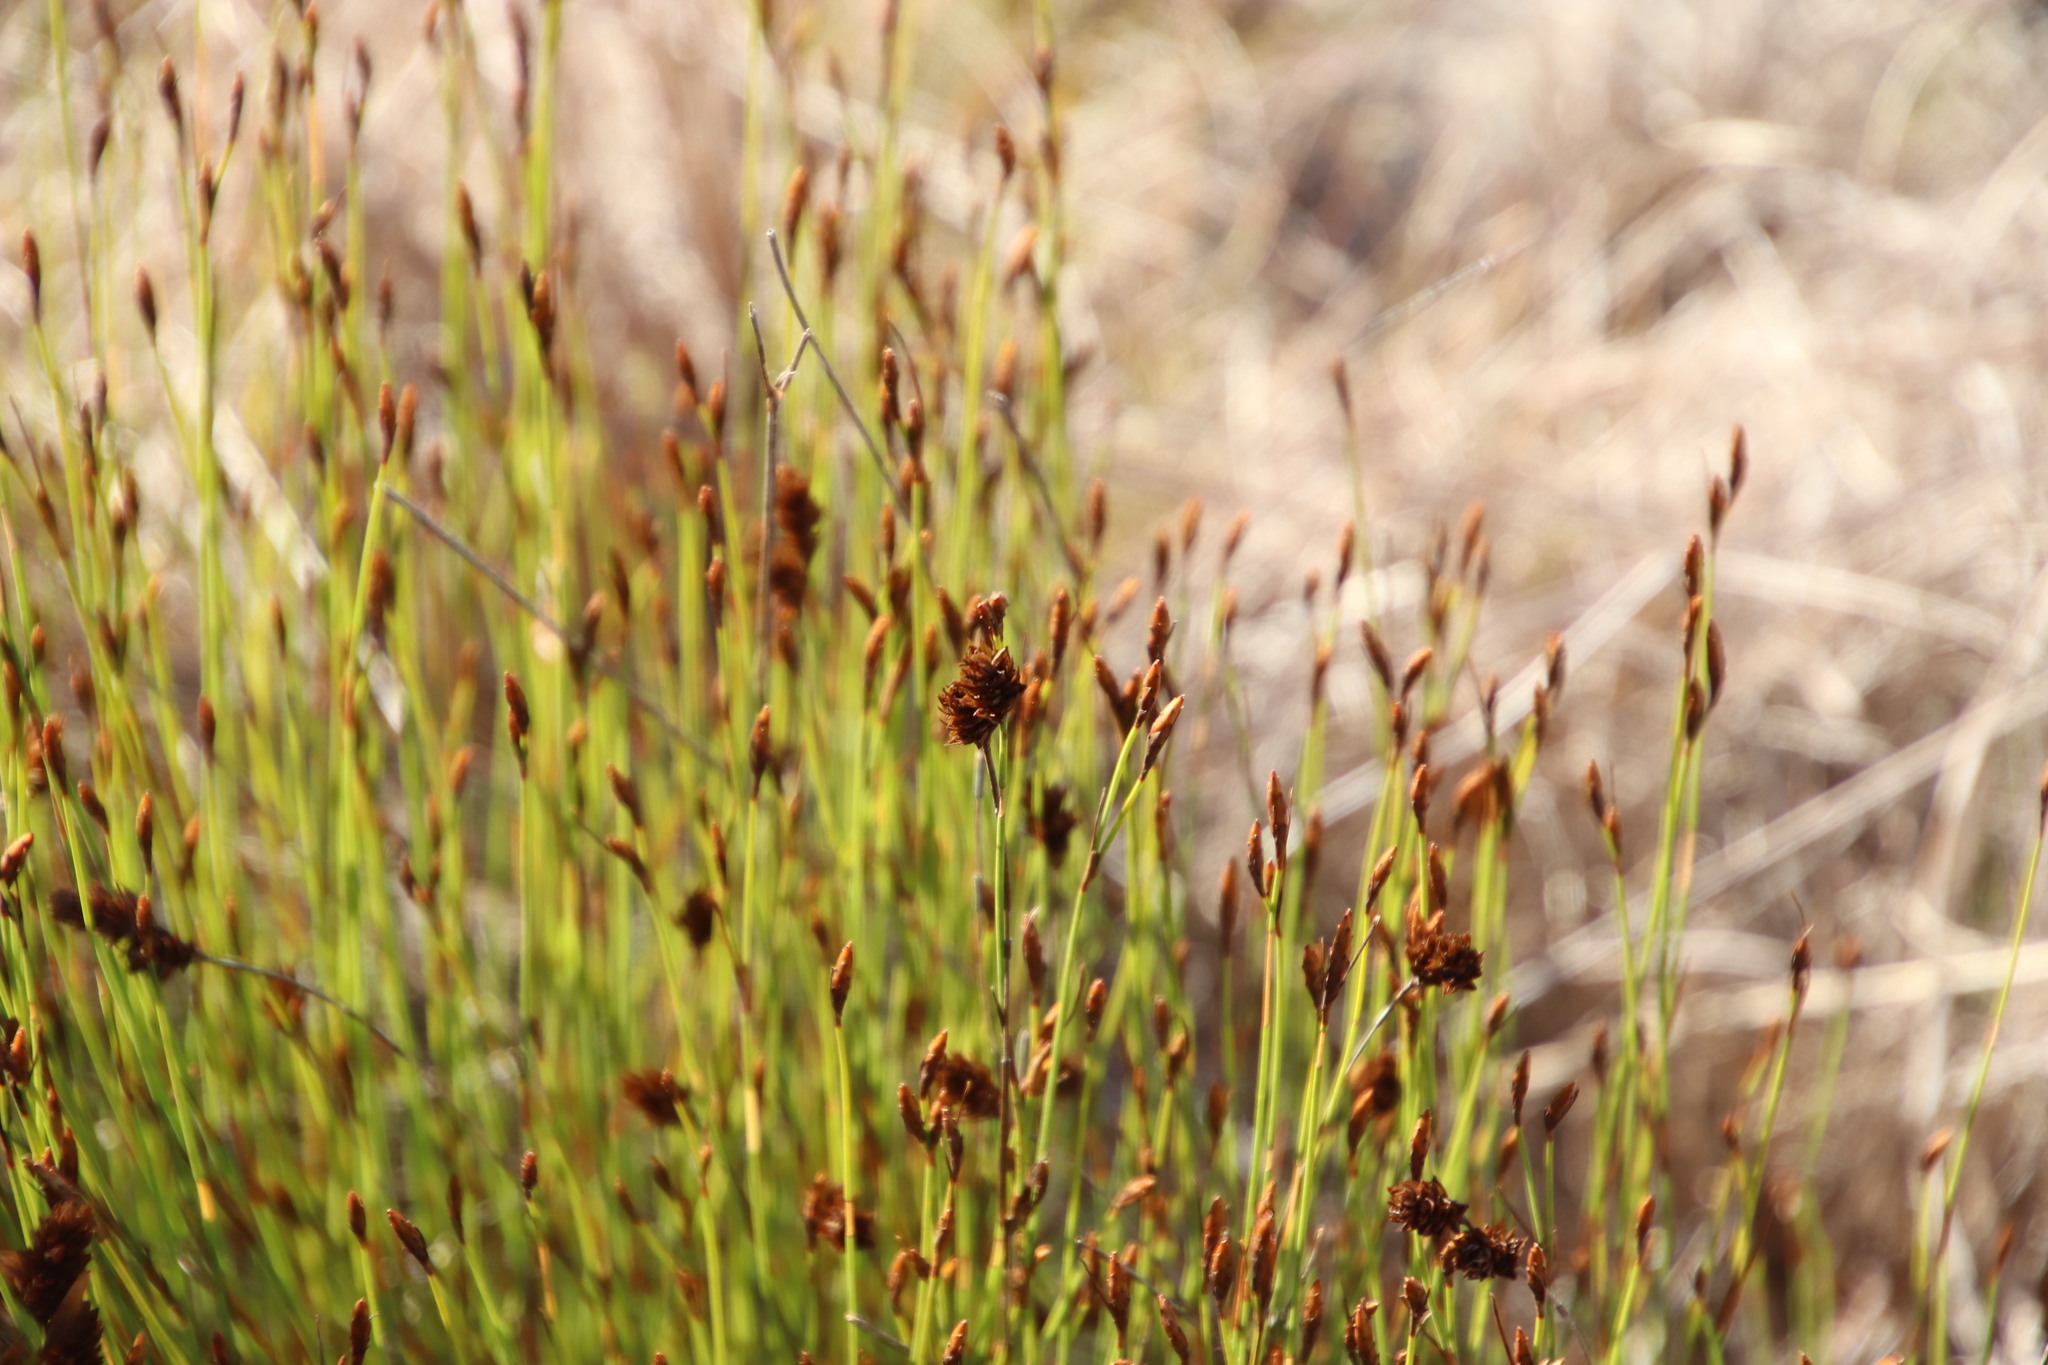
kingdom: Plantae
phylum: Tracheophyta
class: Liliopsida
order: Poales
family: Restionaceae
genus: Restio
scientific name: Restio capensis
